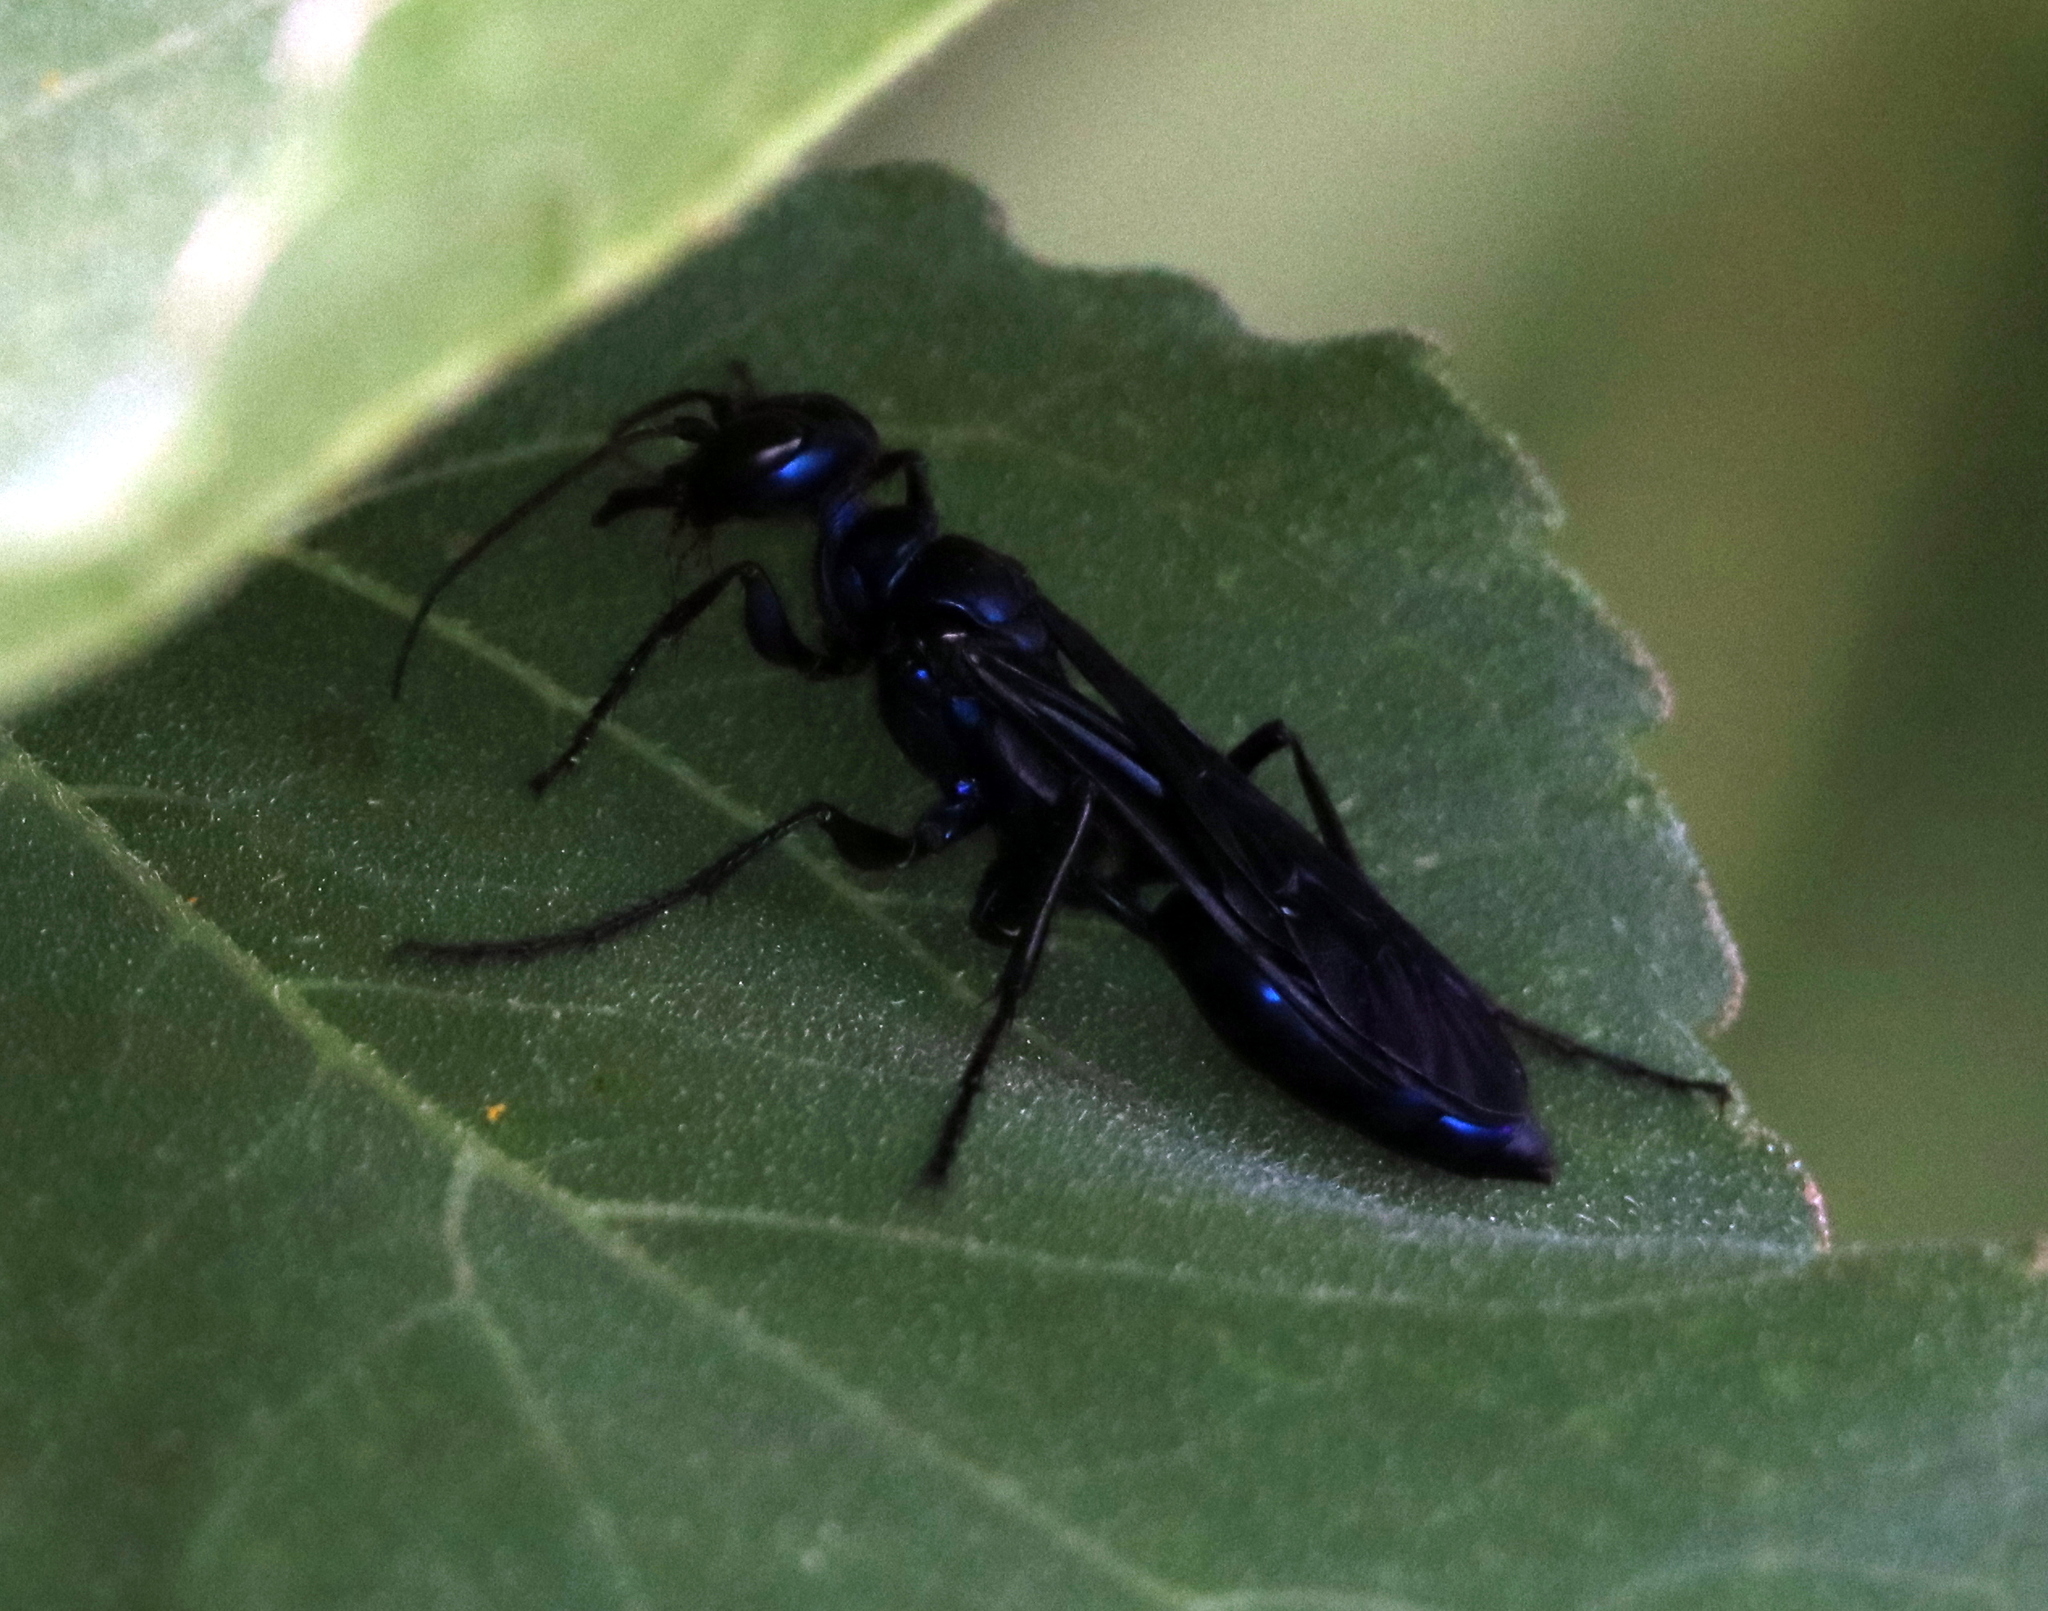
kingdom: Animalia
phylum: Arthropoda
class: Insecta
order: Hymenoptera
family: Sphecidae
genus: Chlorion
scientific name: Chlorion aerarium
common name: Steel-blue cricket hunter
